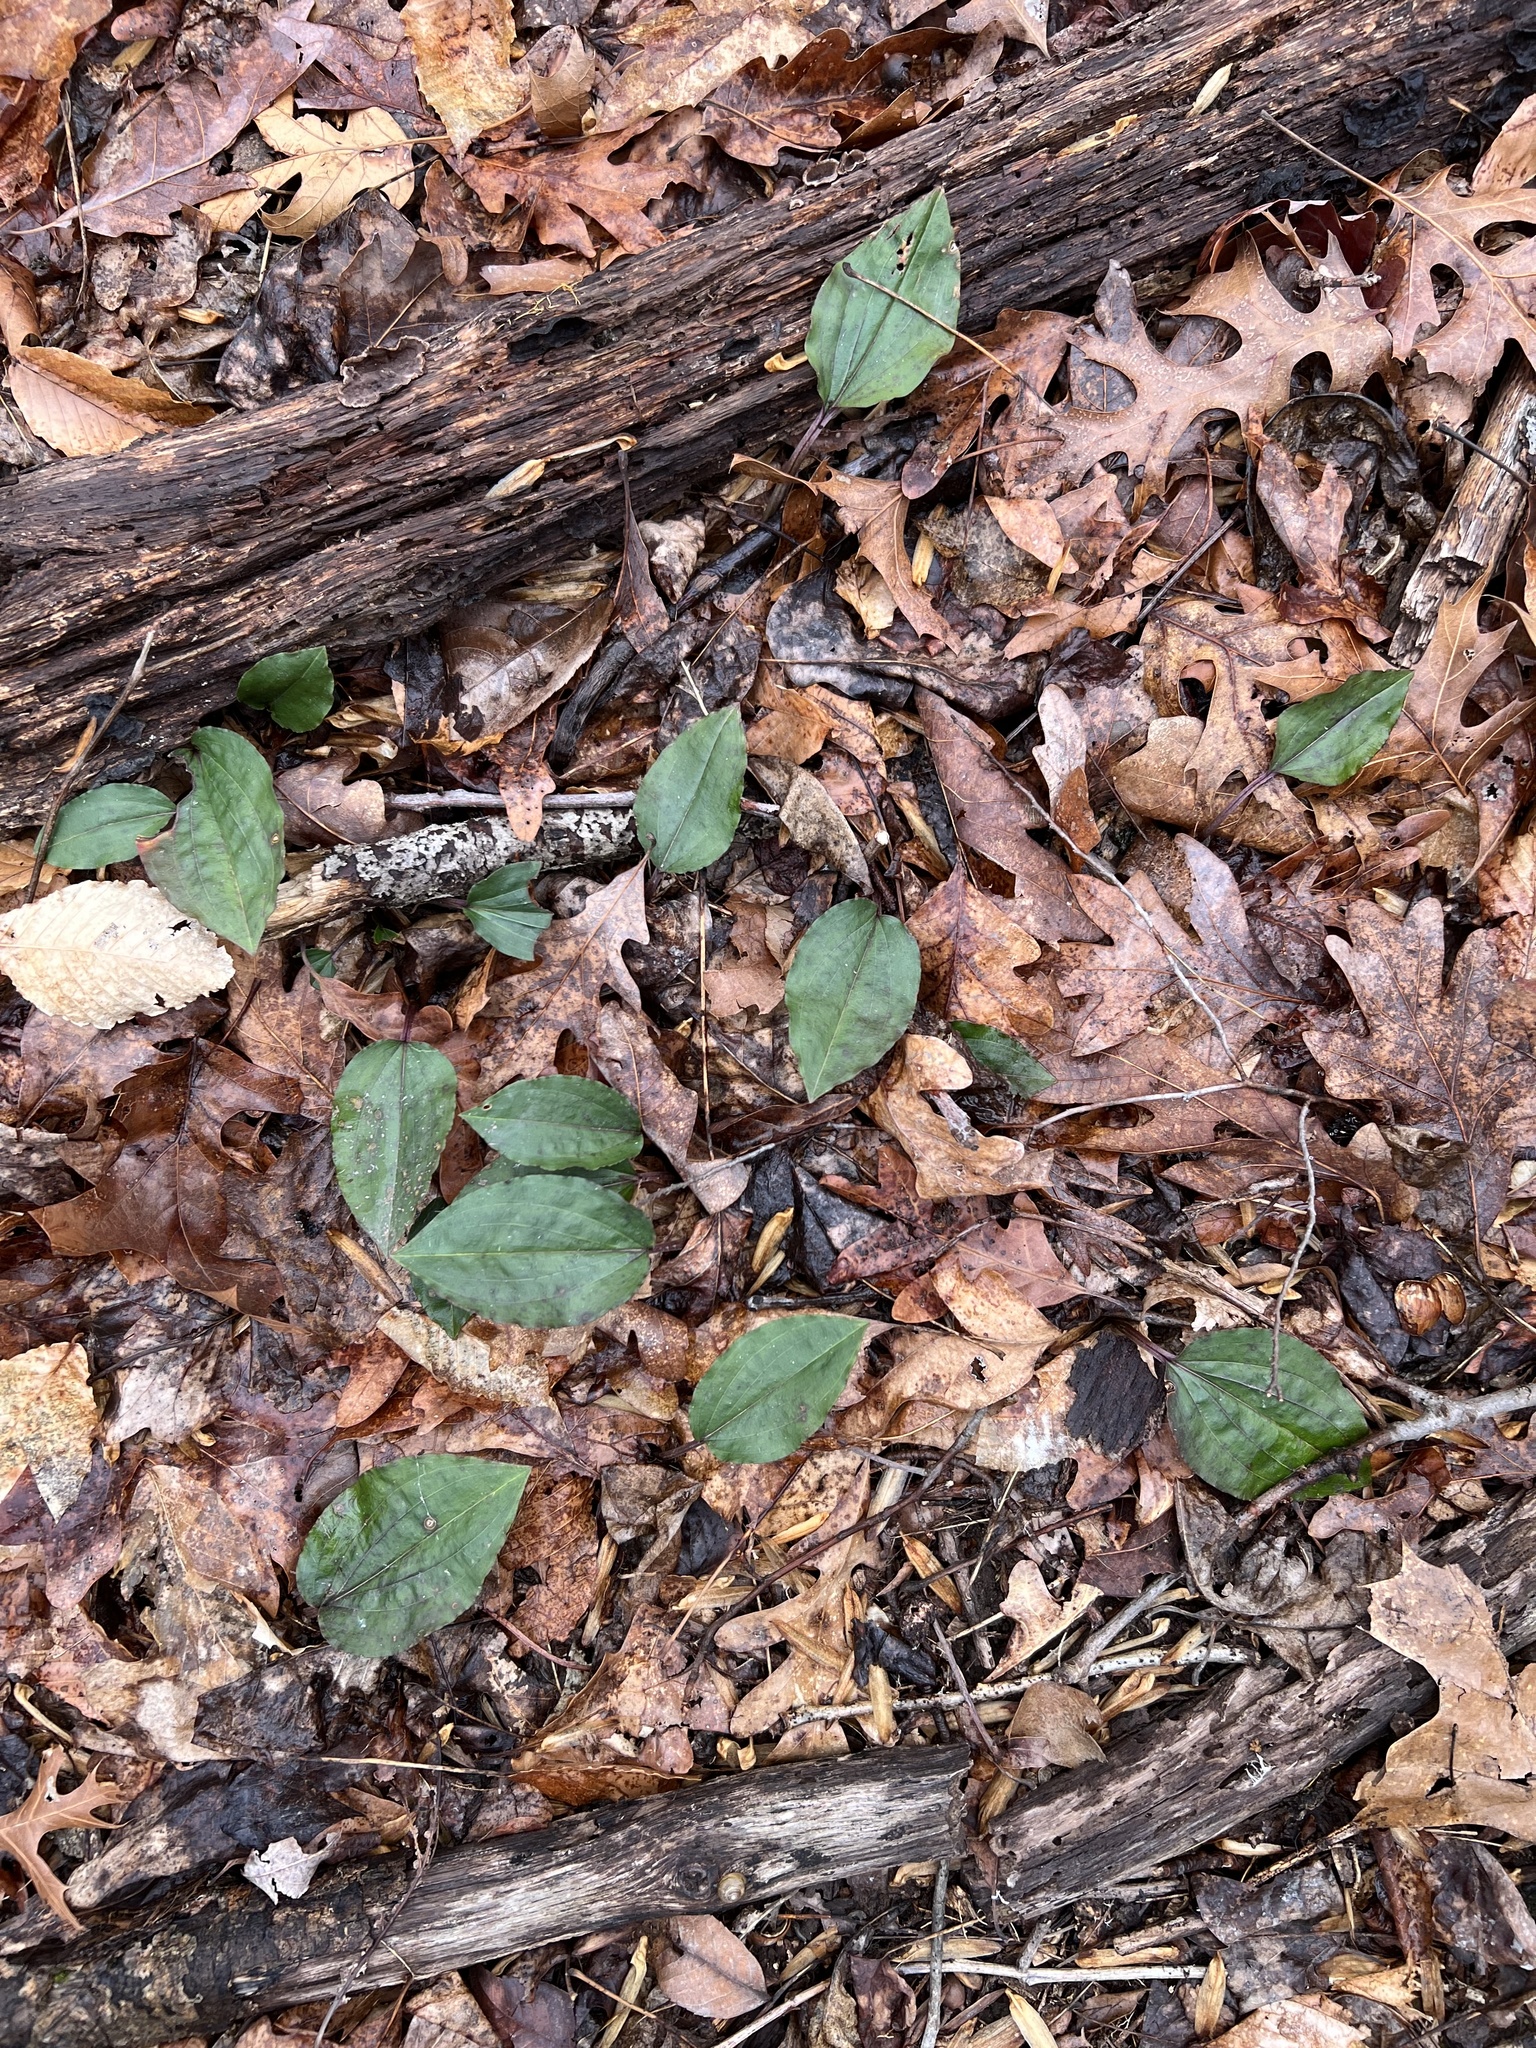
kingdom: Plantae
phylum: Tracheophyta
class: Liliopsida
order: Asparagales
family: Orchidaceae
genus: Tipularia
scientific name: Tipularia discolor
